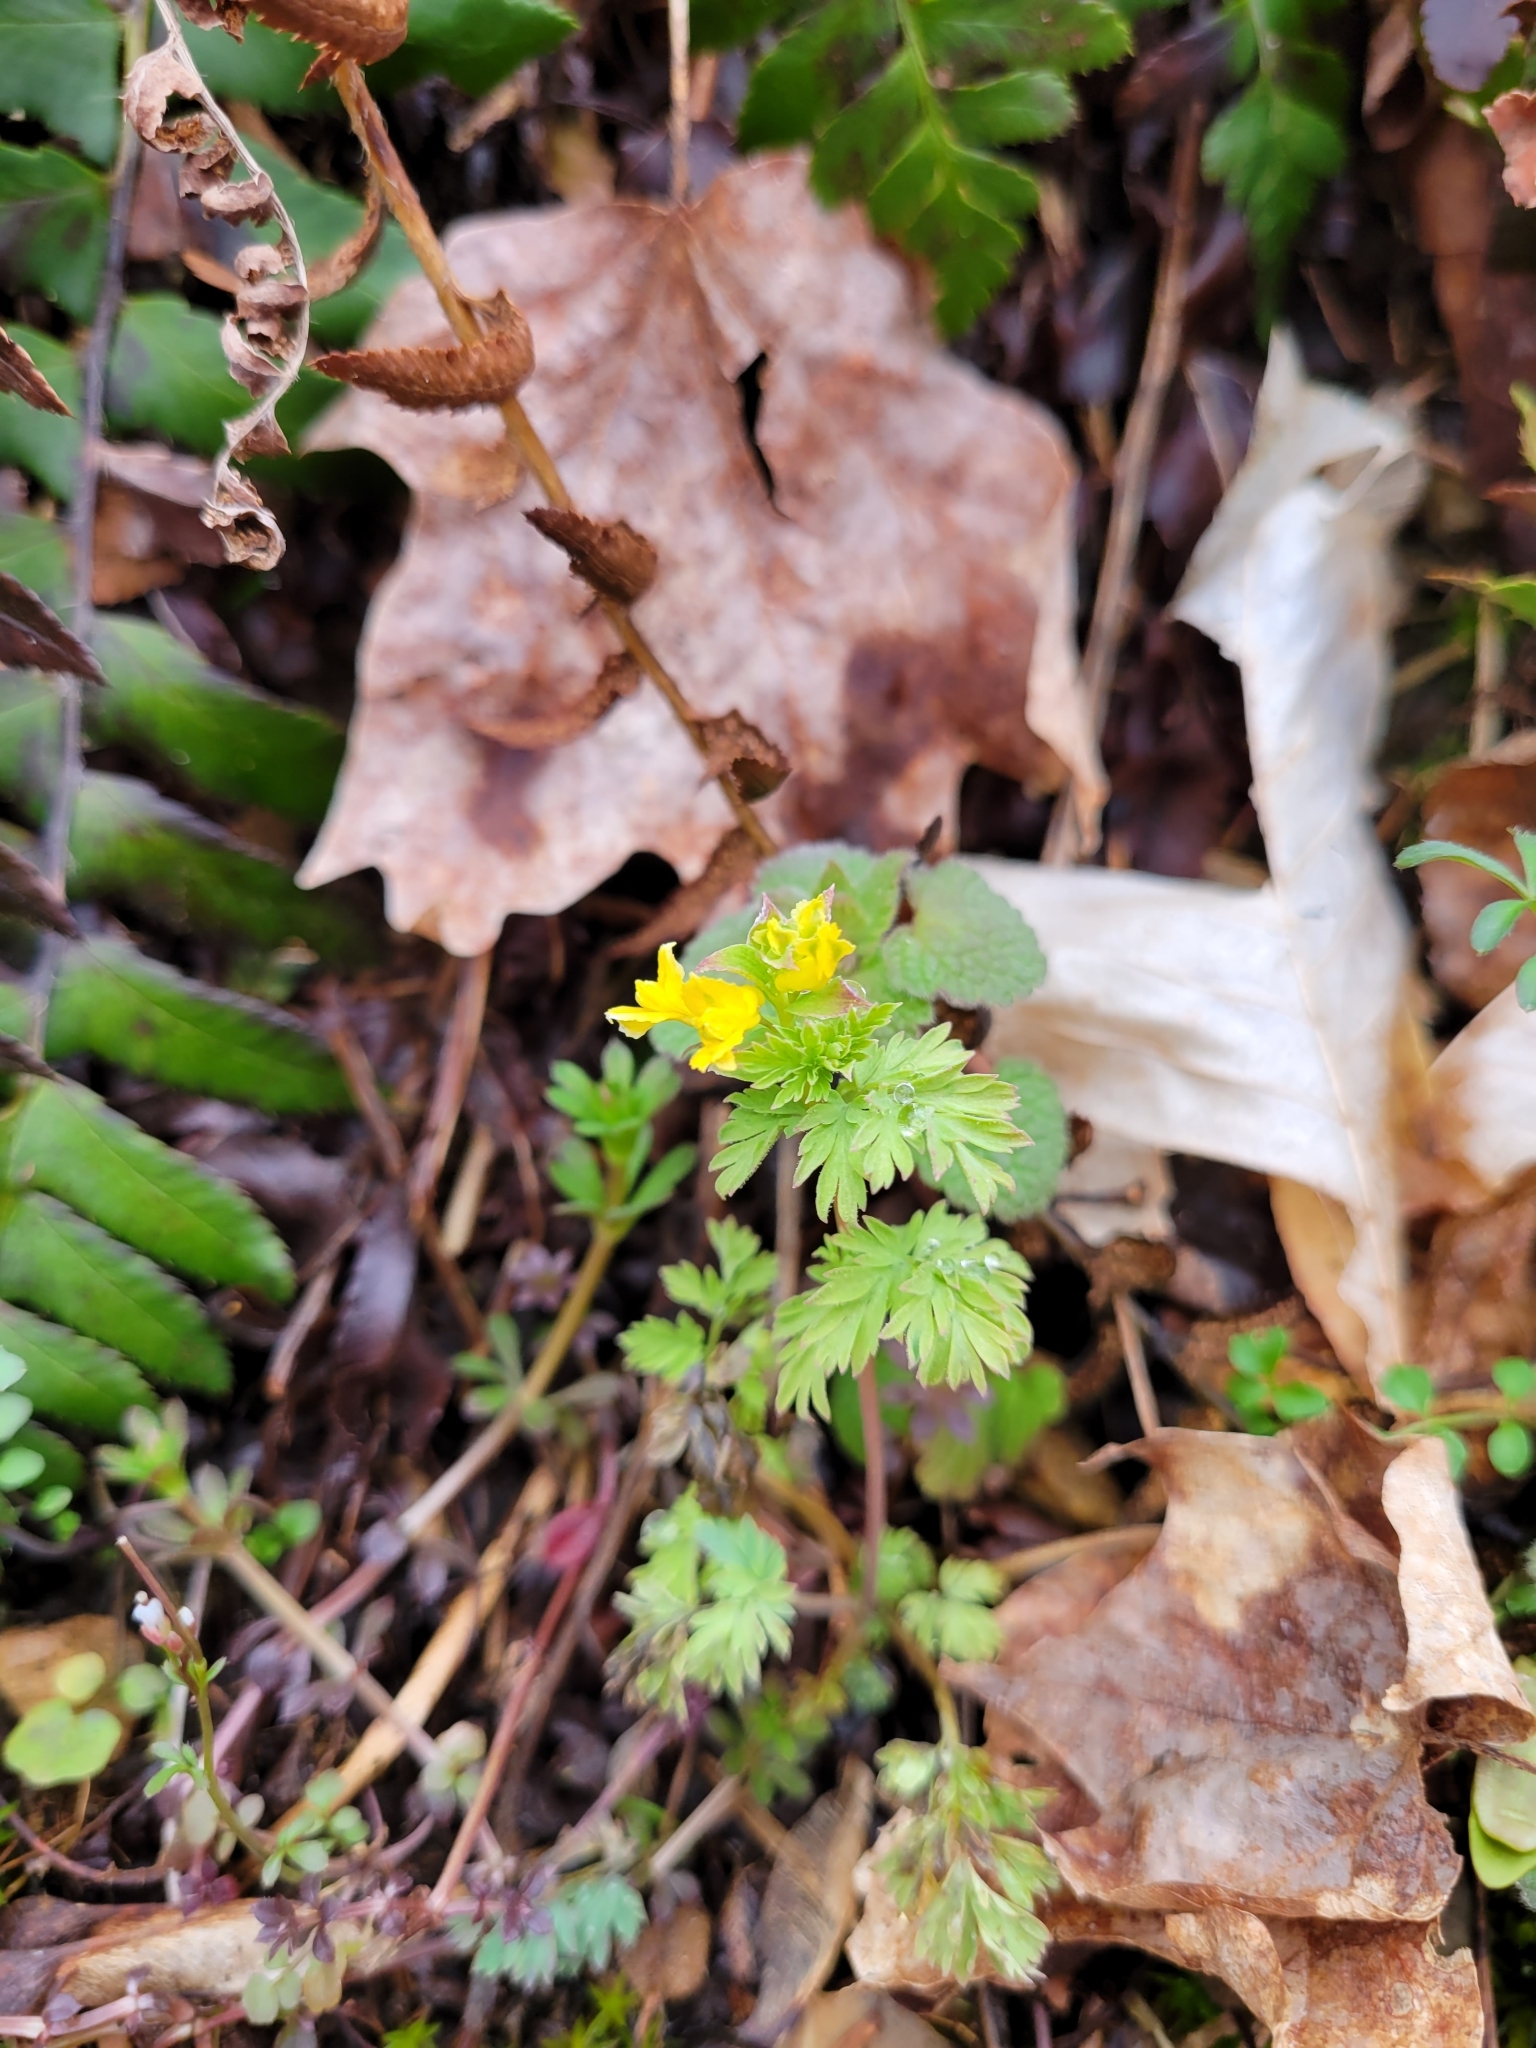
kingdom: Plantae
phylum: Tracheophyta
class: Magnoliopsida
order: Ranunculales
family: Papaveraceae
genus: Corydalis
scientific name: Corydalis flavula
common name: Yellow corydalis
